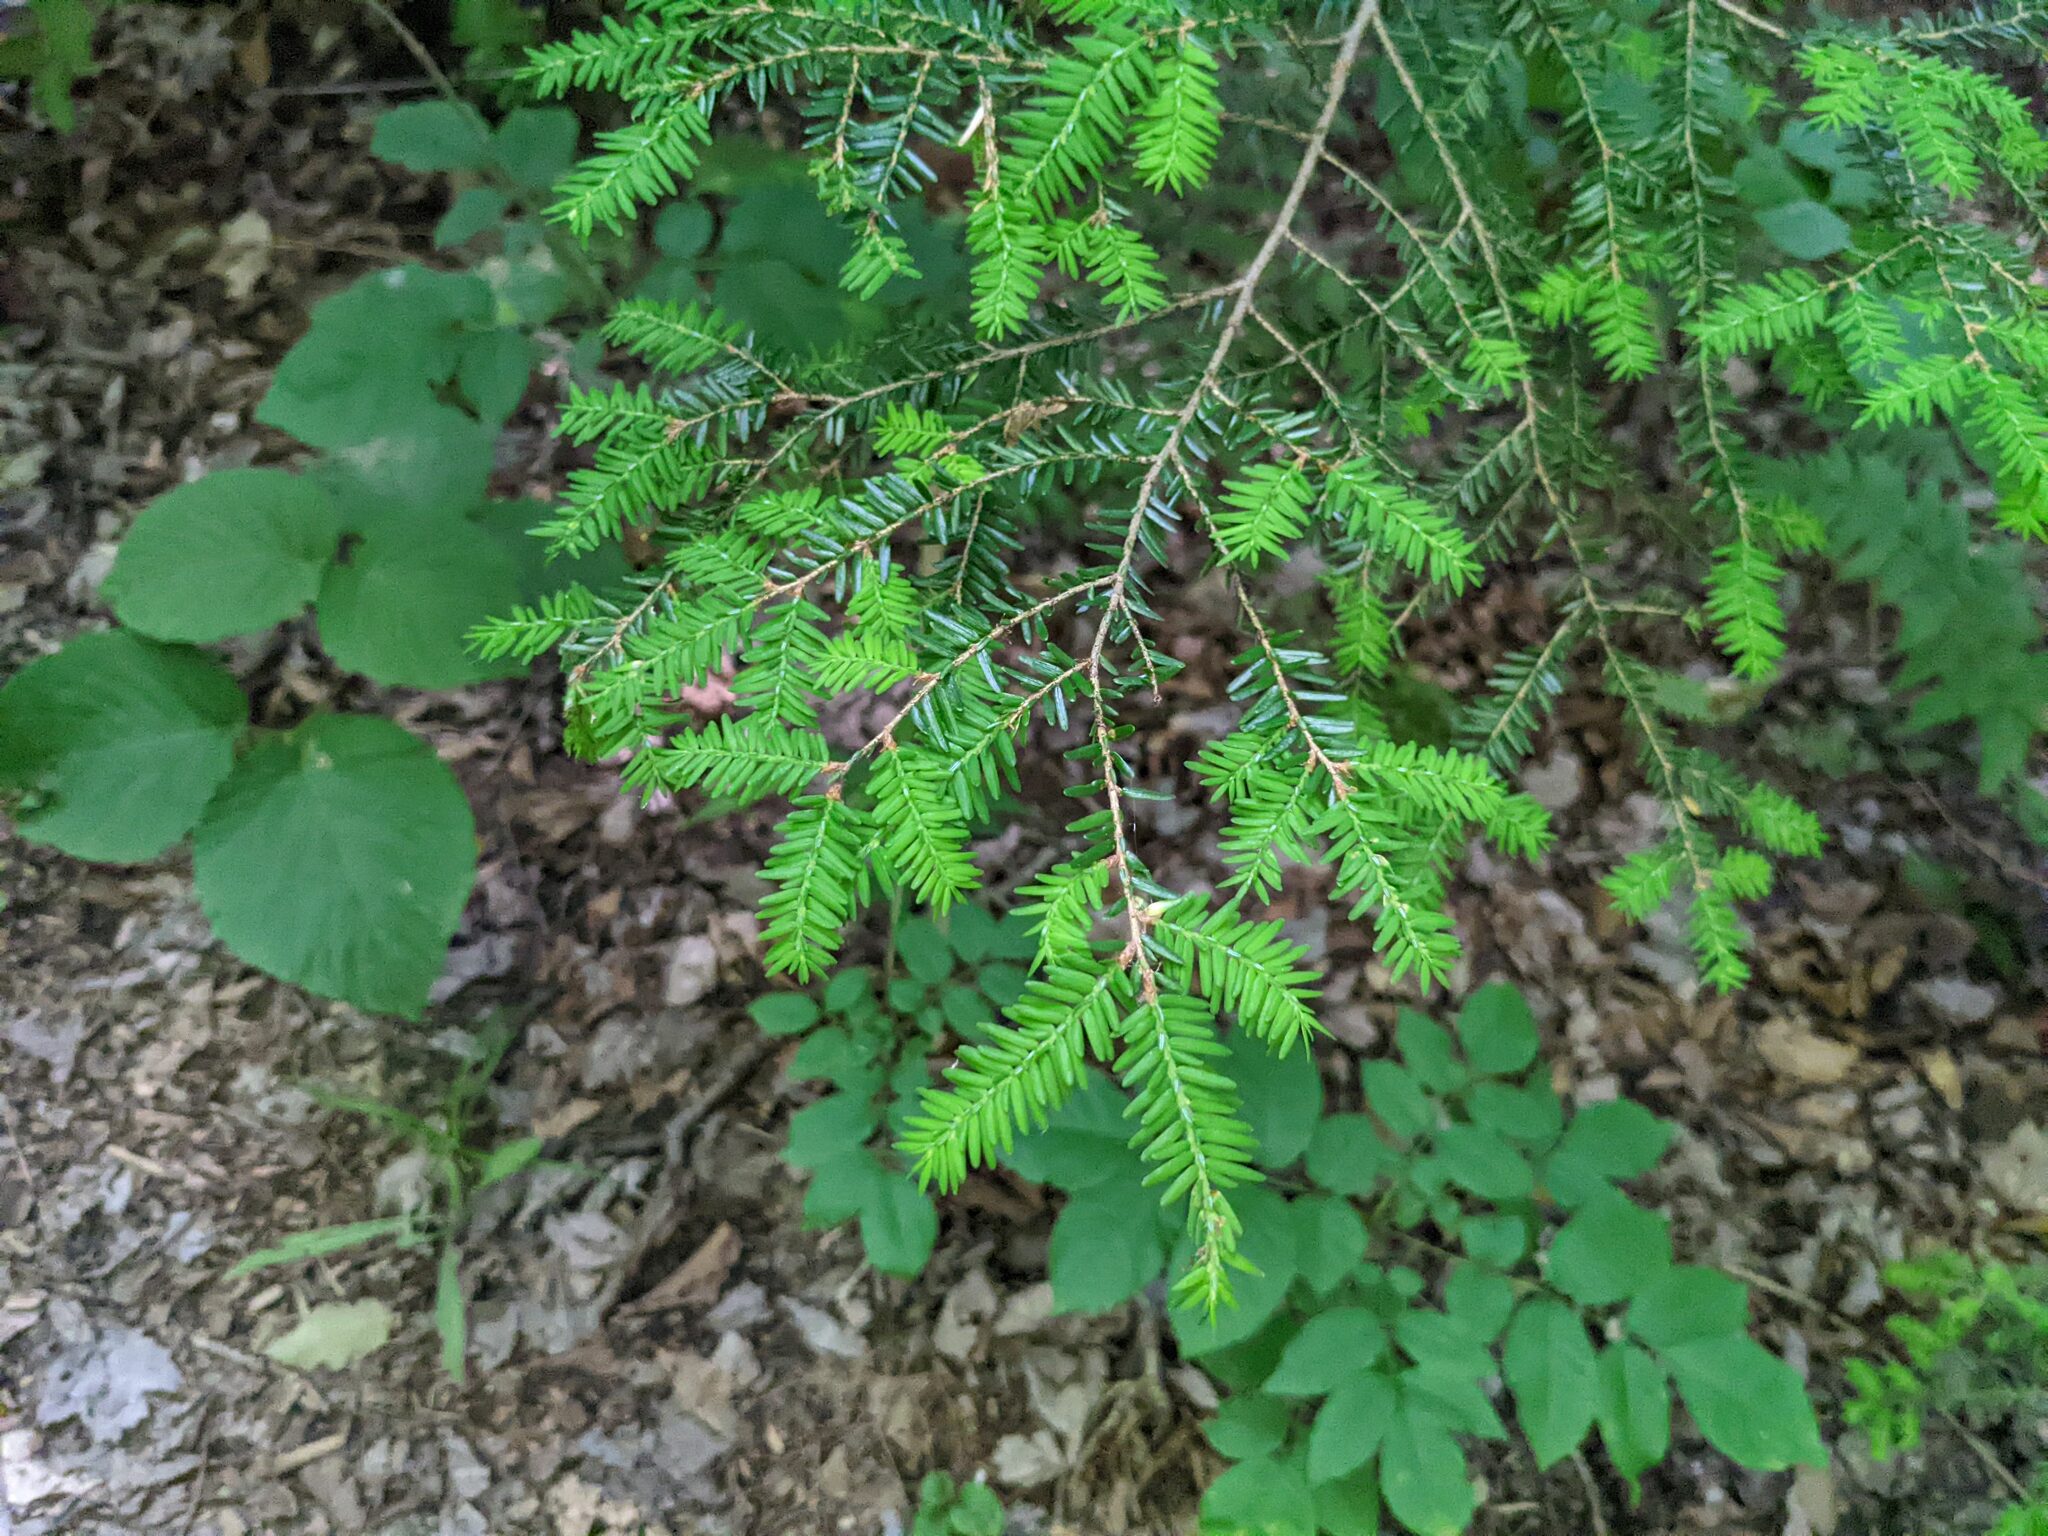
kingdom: Plantae
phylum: Tracheophyta
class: Pinopsida
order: Pinales
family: Pinaceae
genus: Tsuga
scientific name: Tsuga canadensis
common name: Eastern hemlock
